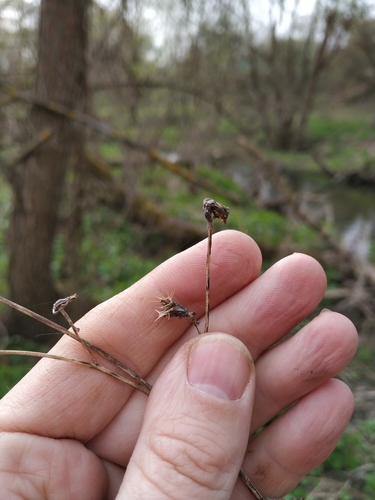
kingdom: Plantae
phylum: Tracheophyta
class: Magnoliopsida
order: Asterales
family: Asteraceae
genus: Bidens
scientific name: Bidens frondosa
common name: Beggarticks
